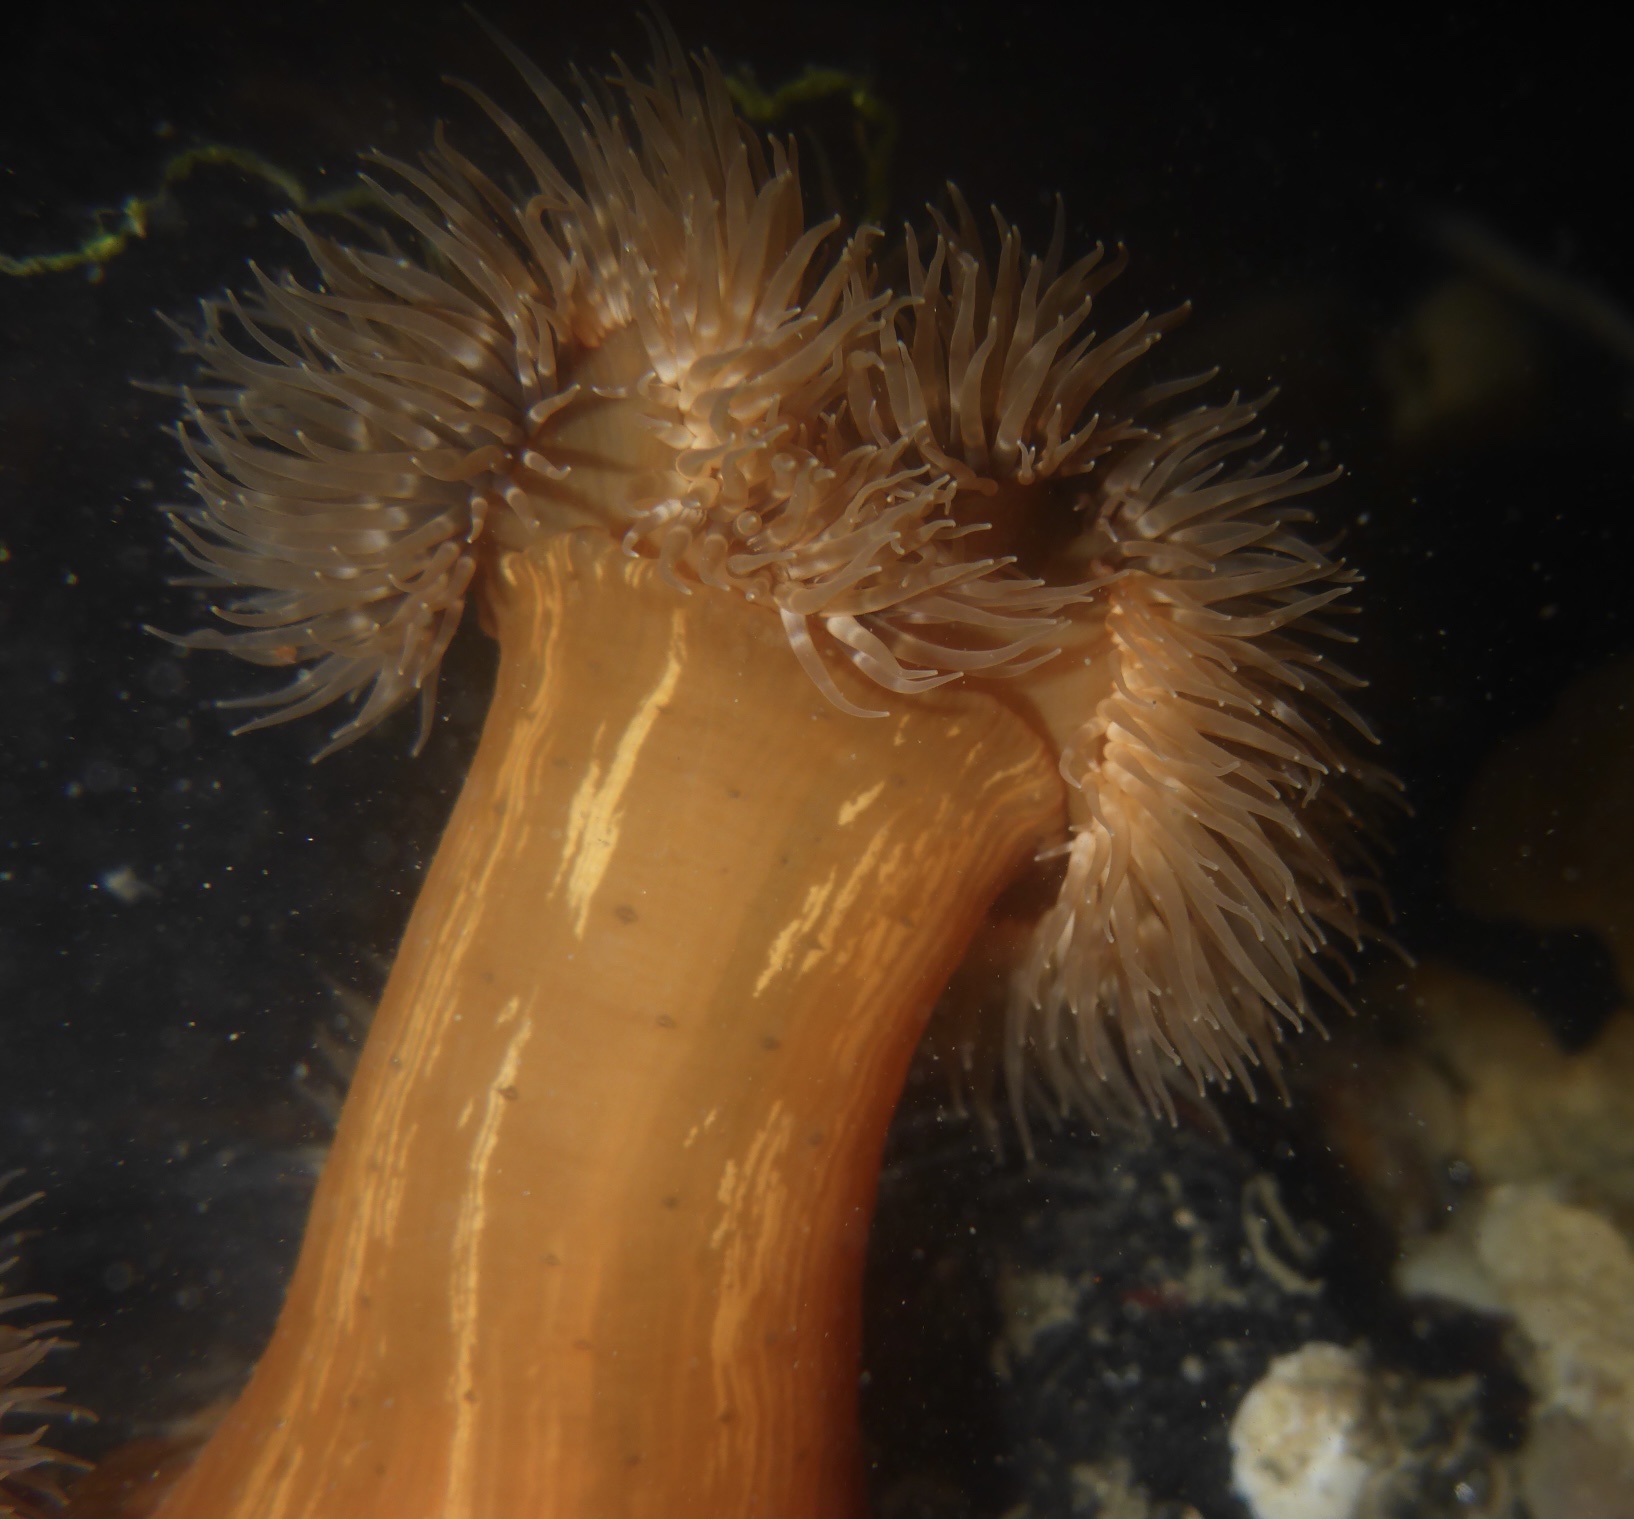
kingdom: Animalia
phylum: Cnidaria
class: Anthozoa
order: Actiniaria
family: Metridiidae
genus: Metridium
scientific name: Metridium senile
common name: Clonal plumose anemone
